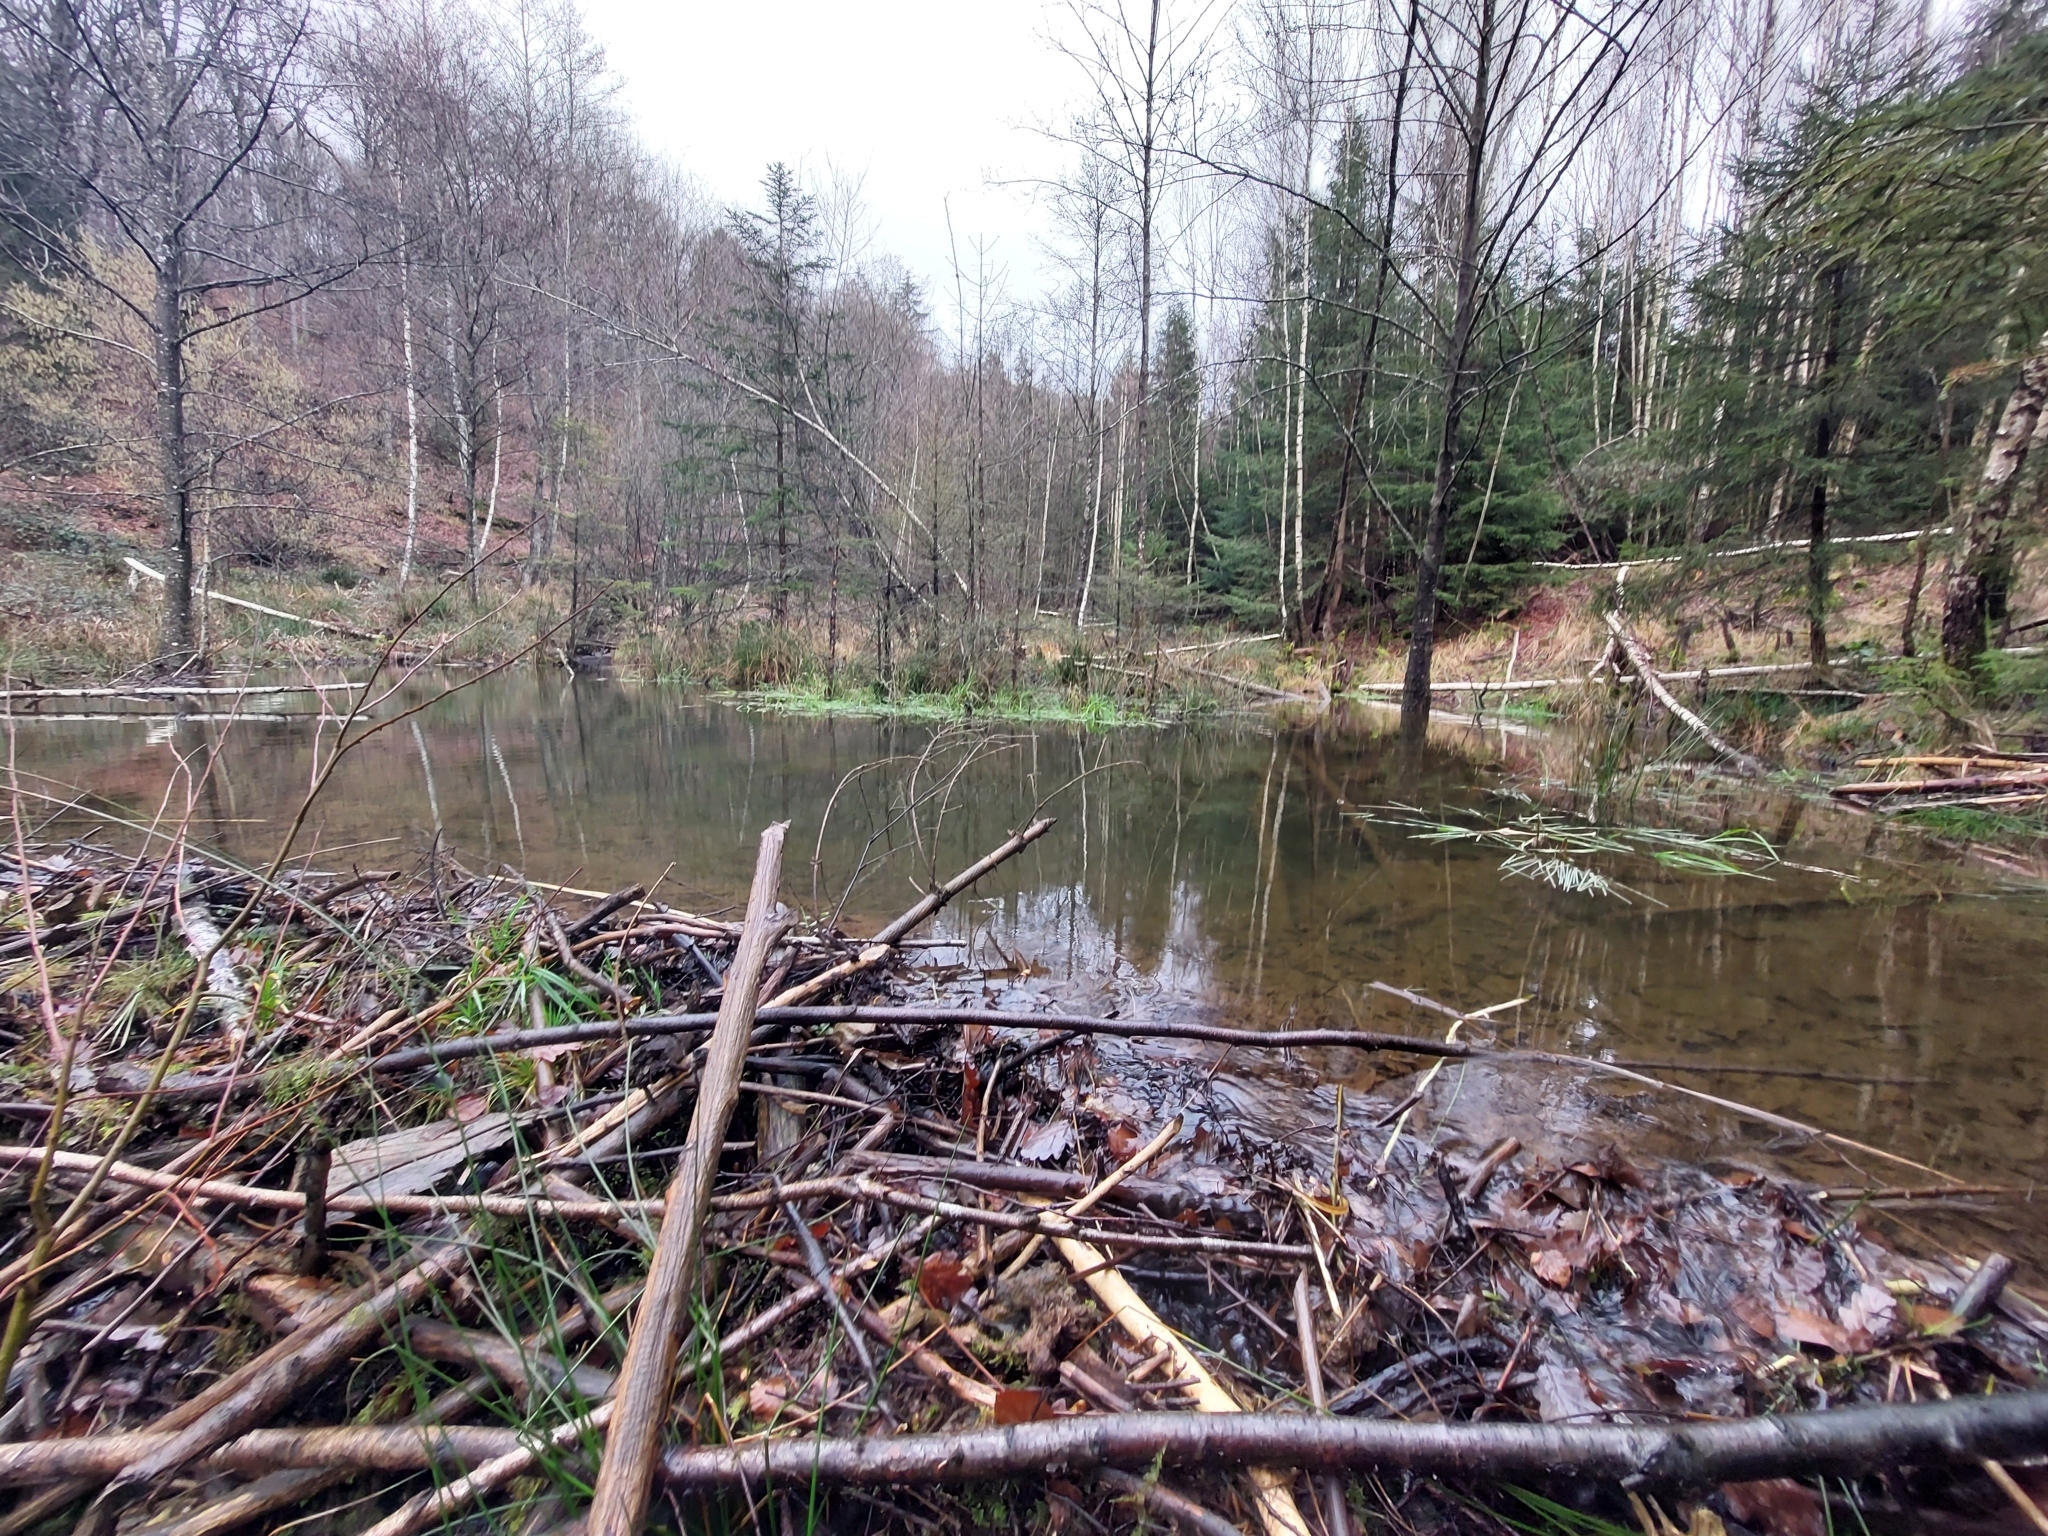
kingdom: Animalia
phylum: Chordata
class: Mammalia
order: Rodentia
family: Castoridae
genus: Castor
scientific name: Castor fiber
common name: Eurasian beaver
